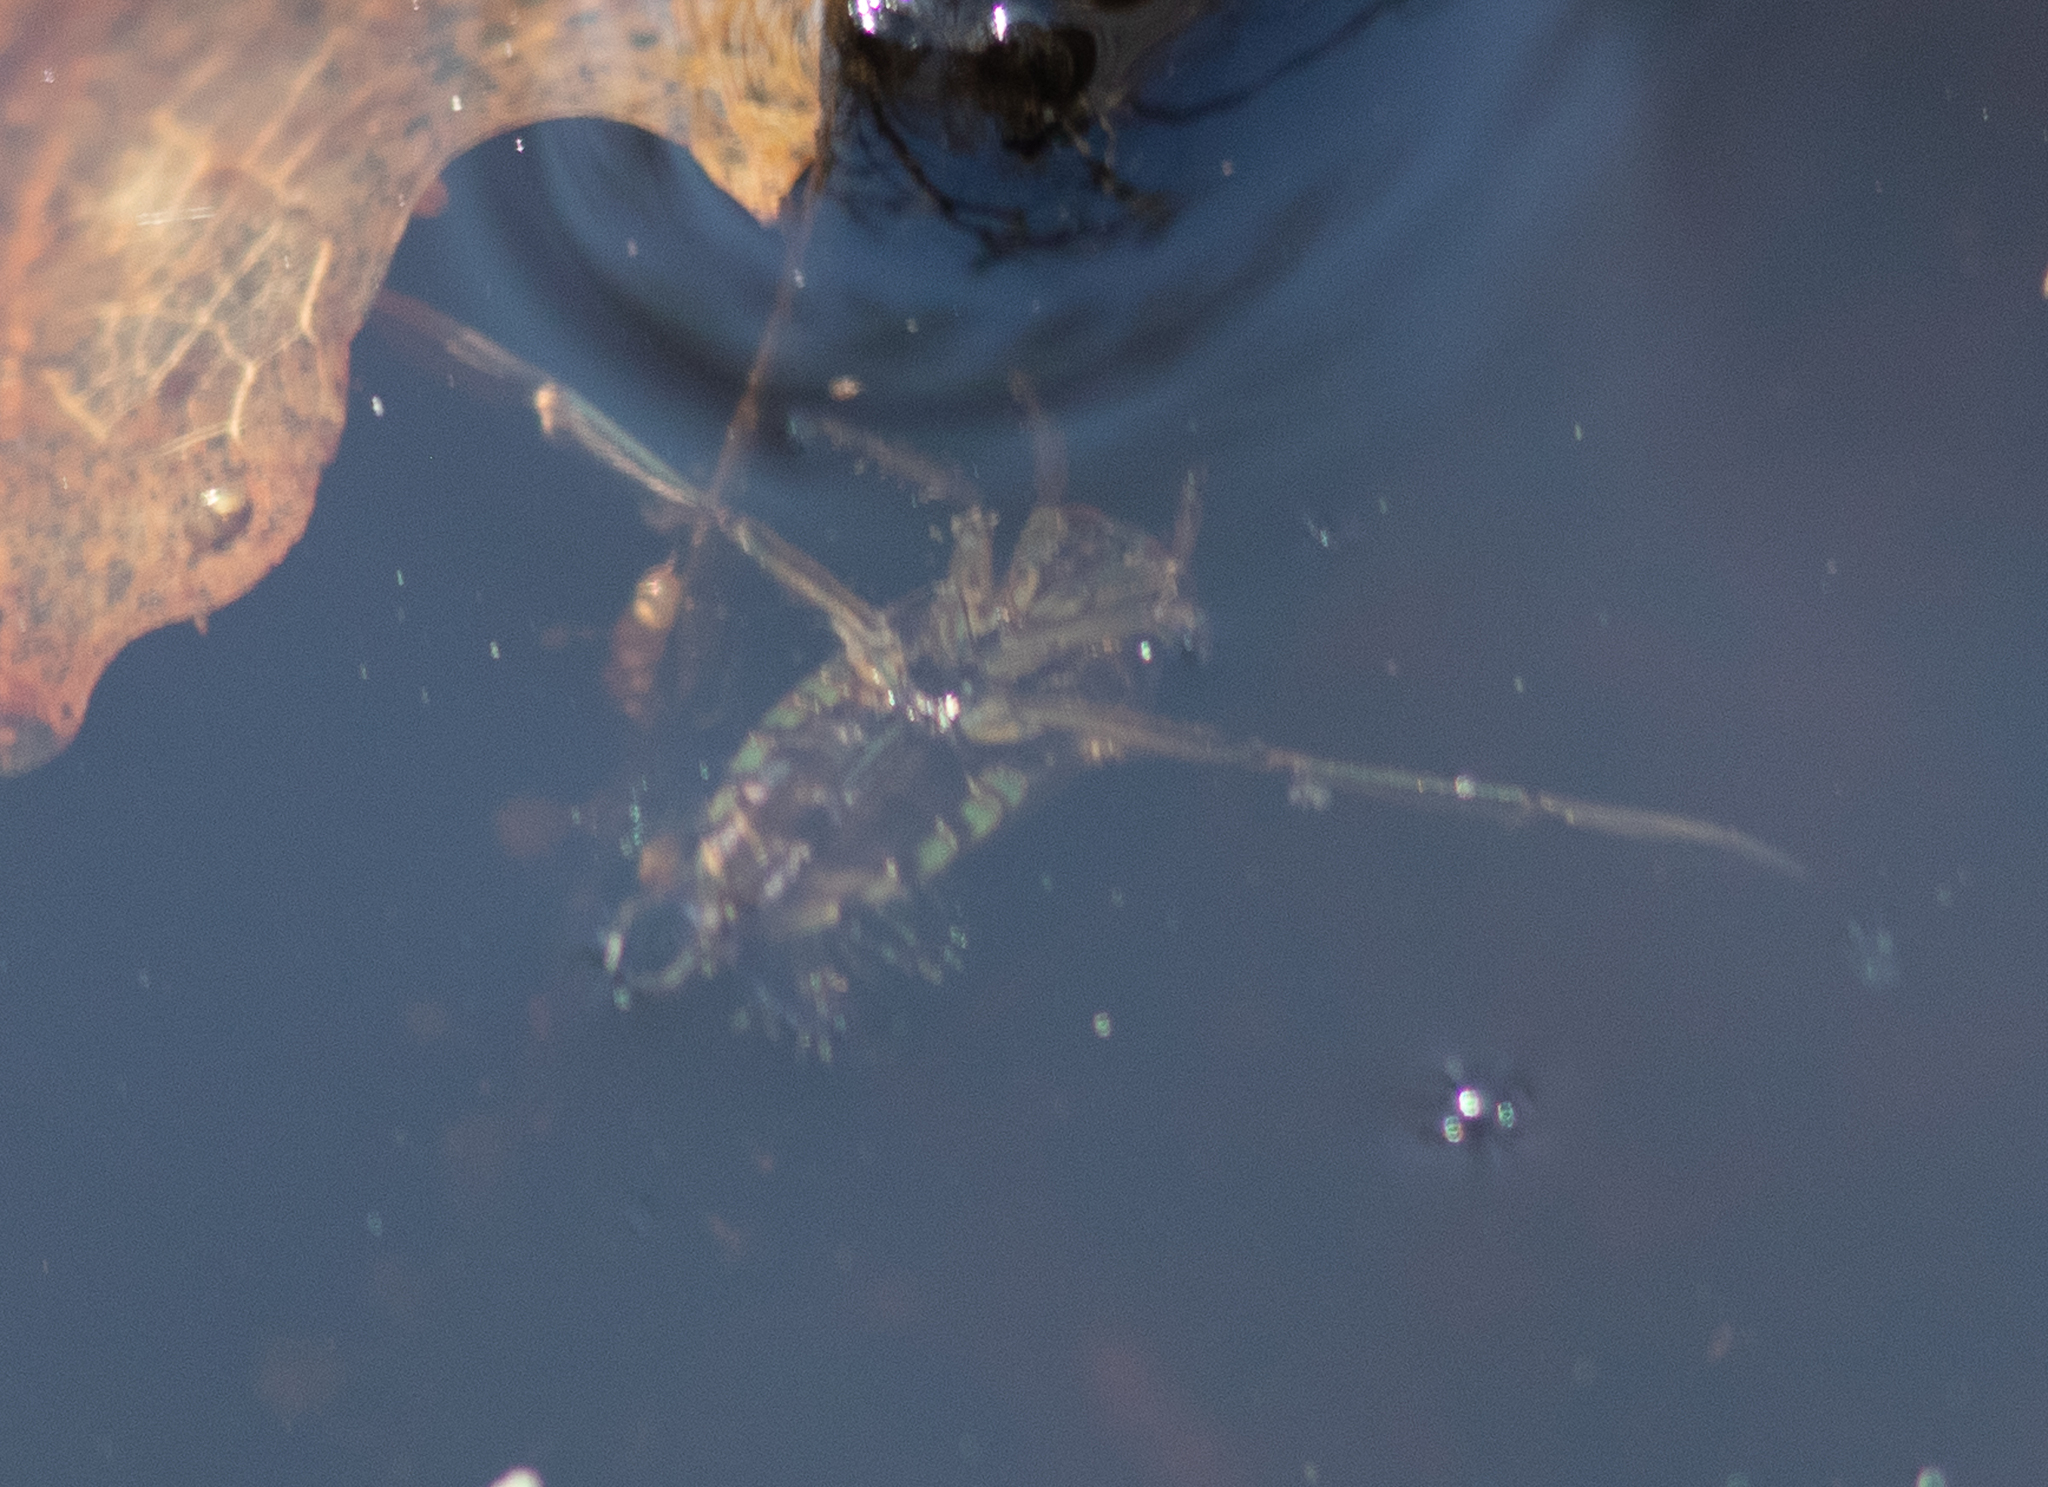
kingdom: Animalia
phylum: Arthropoda
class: Insecta
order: Hemiptera
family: Notonectidae
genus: Notonecta
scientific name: Notonecta
